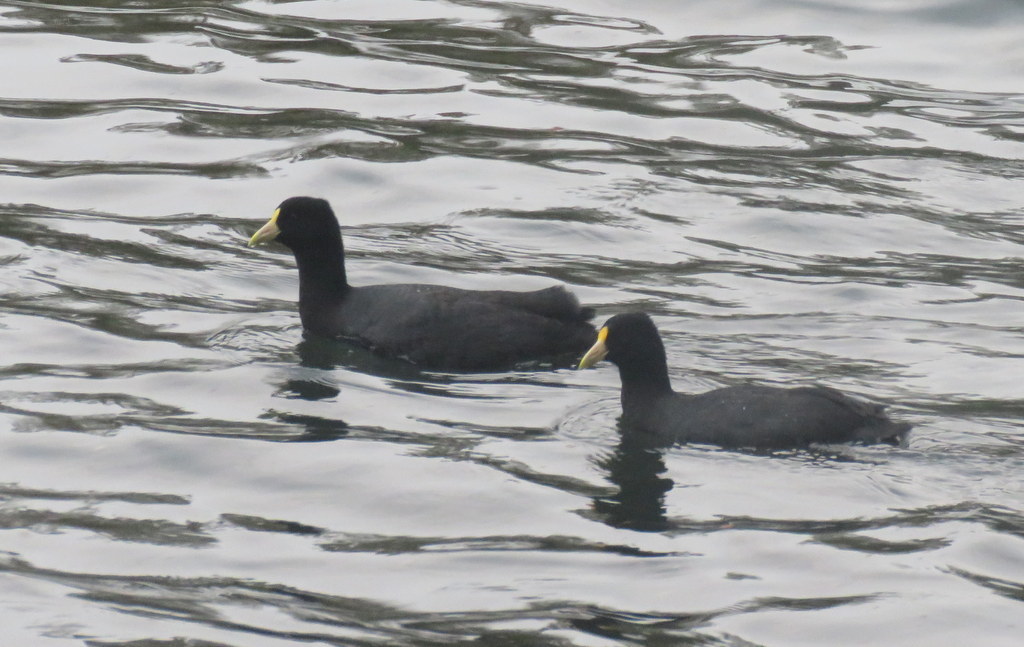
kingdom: Animalia
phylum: Chordata
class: Aves
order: Gruiformes
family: Rallidae
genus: Fulica
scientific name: Fulica leucoptera
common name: White-winged coot
